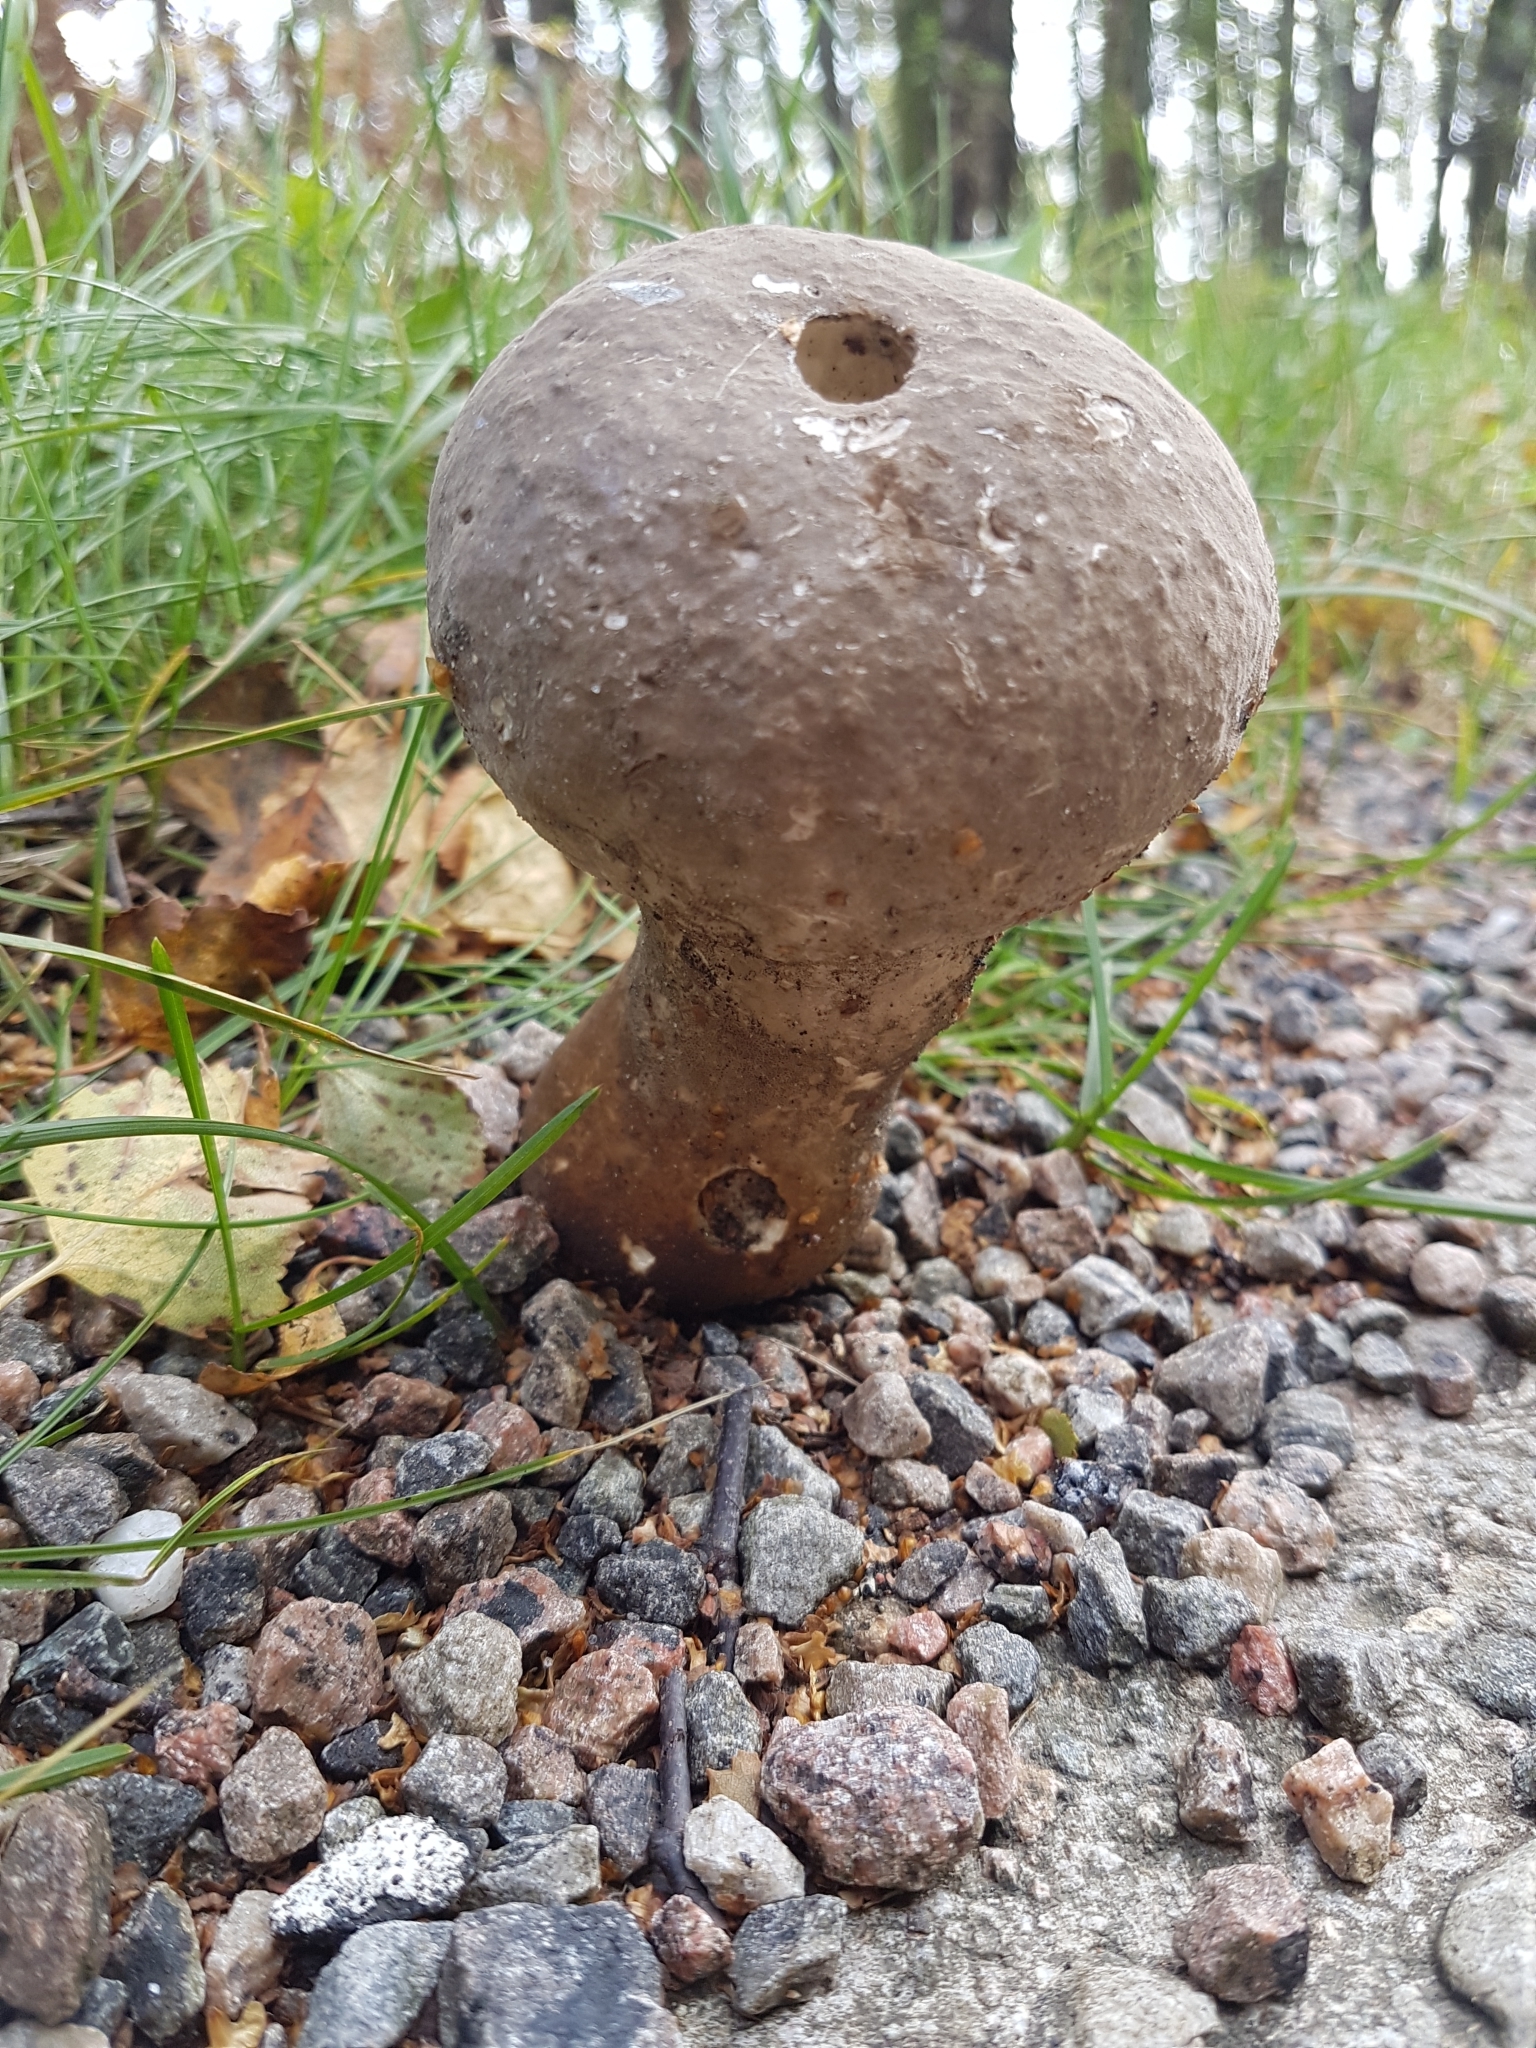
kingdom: Fungi
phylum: Basidiomycota
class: Agaricomycetes
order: Agaricales
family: Lycoperdaceae
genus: Lycoperdon
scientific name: Lycoperdon excipuliforme
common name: Pestle puffball
